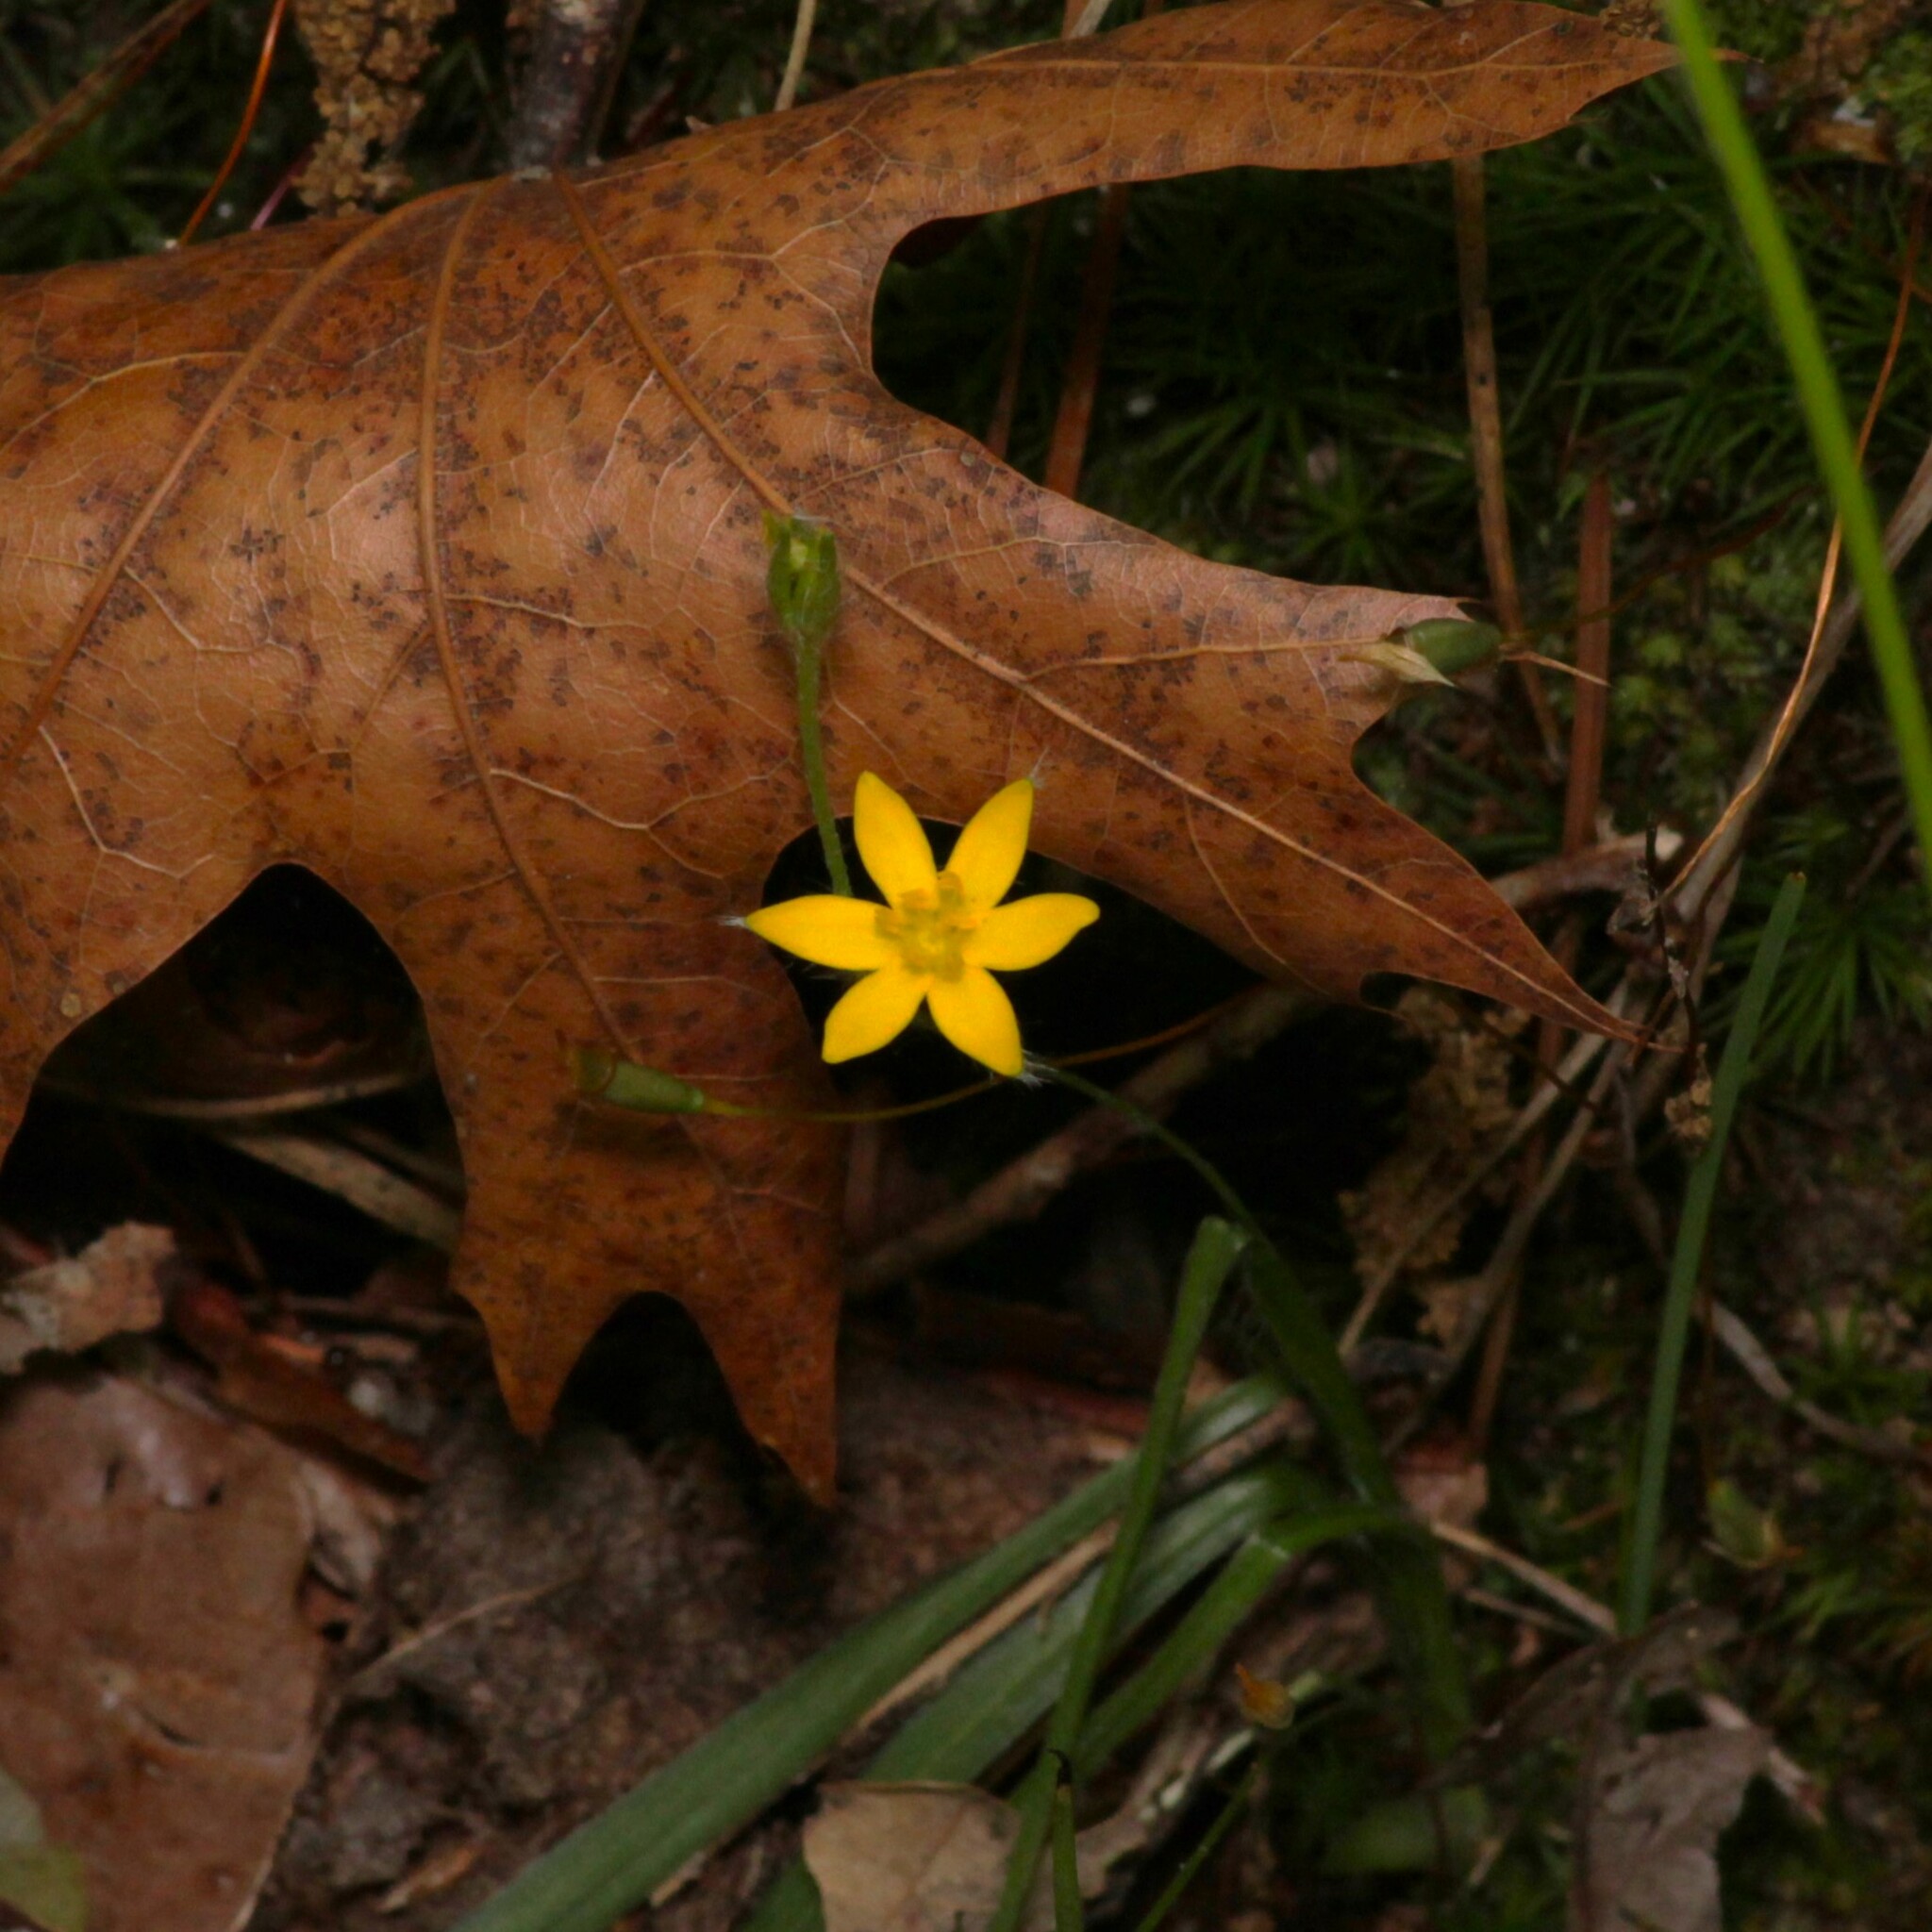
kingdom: Plantae
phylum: Tracheophyta
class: Liliopsida
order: Asparagales
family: Hypoxidaceae
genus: Hypoxis
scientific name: Hypoxis hirsuta
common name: Common goldstar
